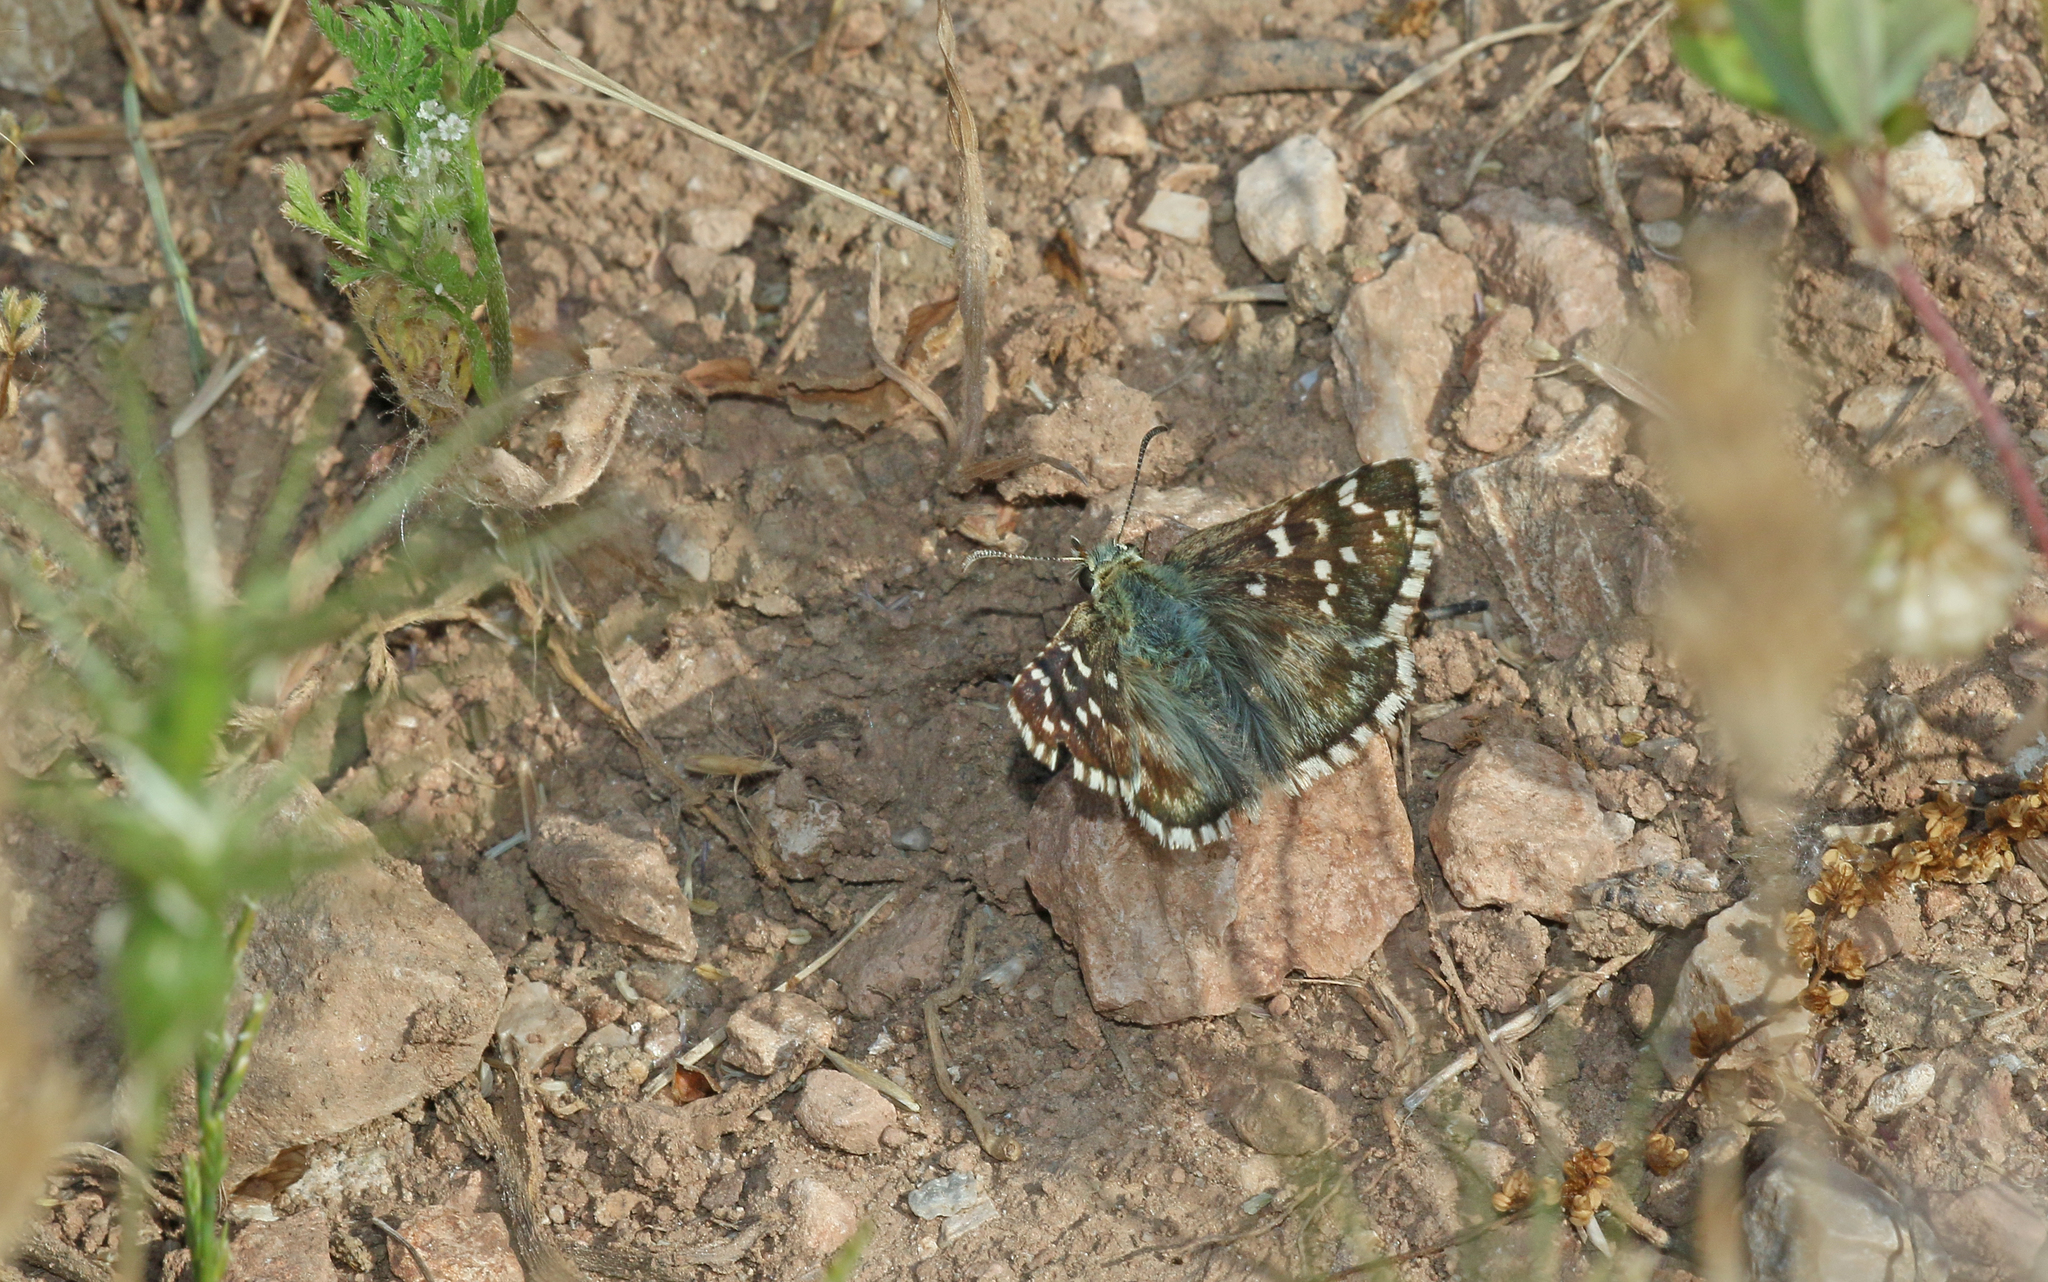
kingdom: Animalia
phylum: Arthropoda
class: Insecta
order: Lepidoptera
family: Hesperiidae
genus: Pyrgus
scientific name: Pyrgus onopordi
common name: Rosy grizzled skipper
